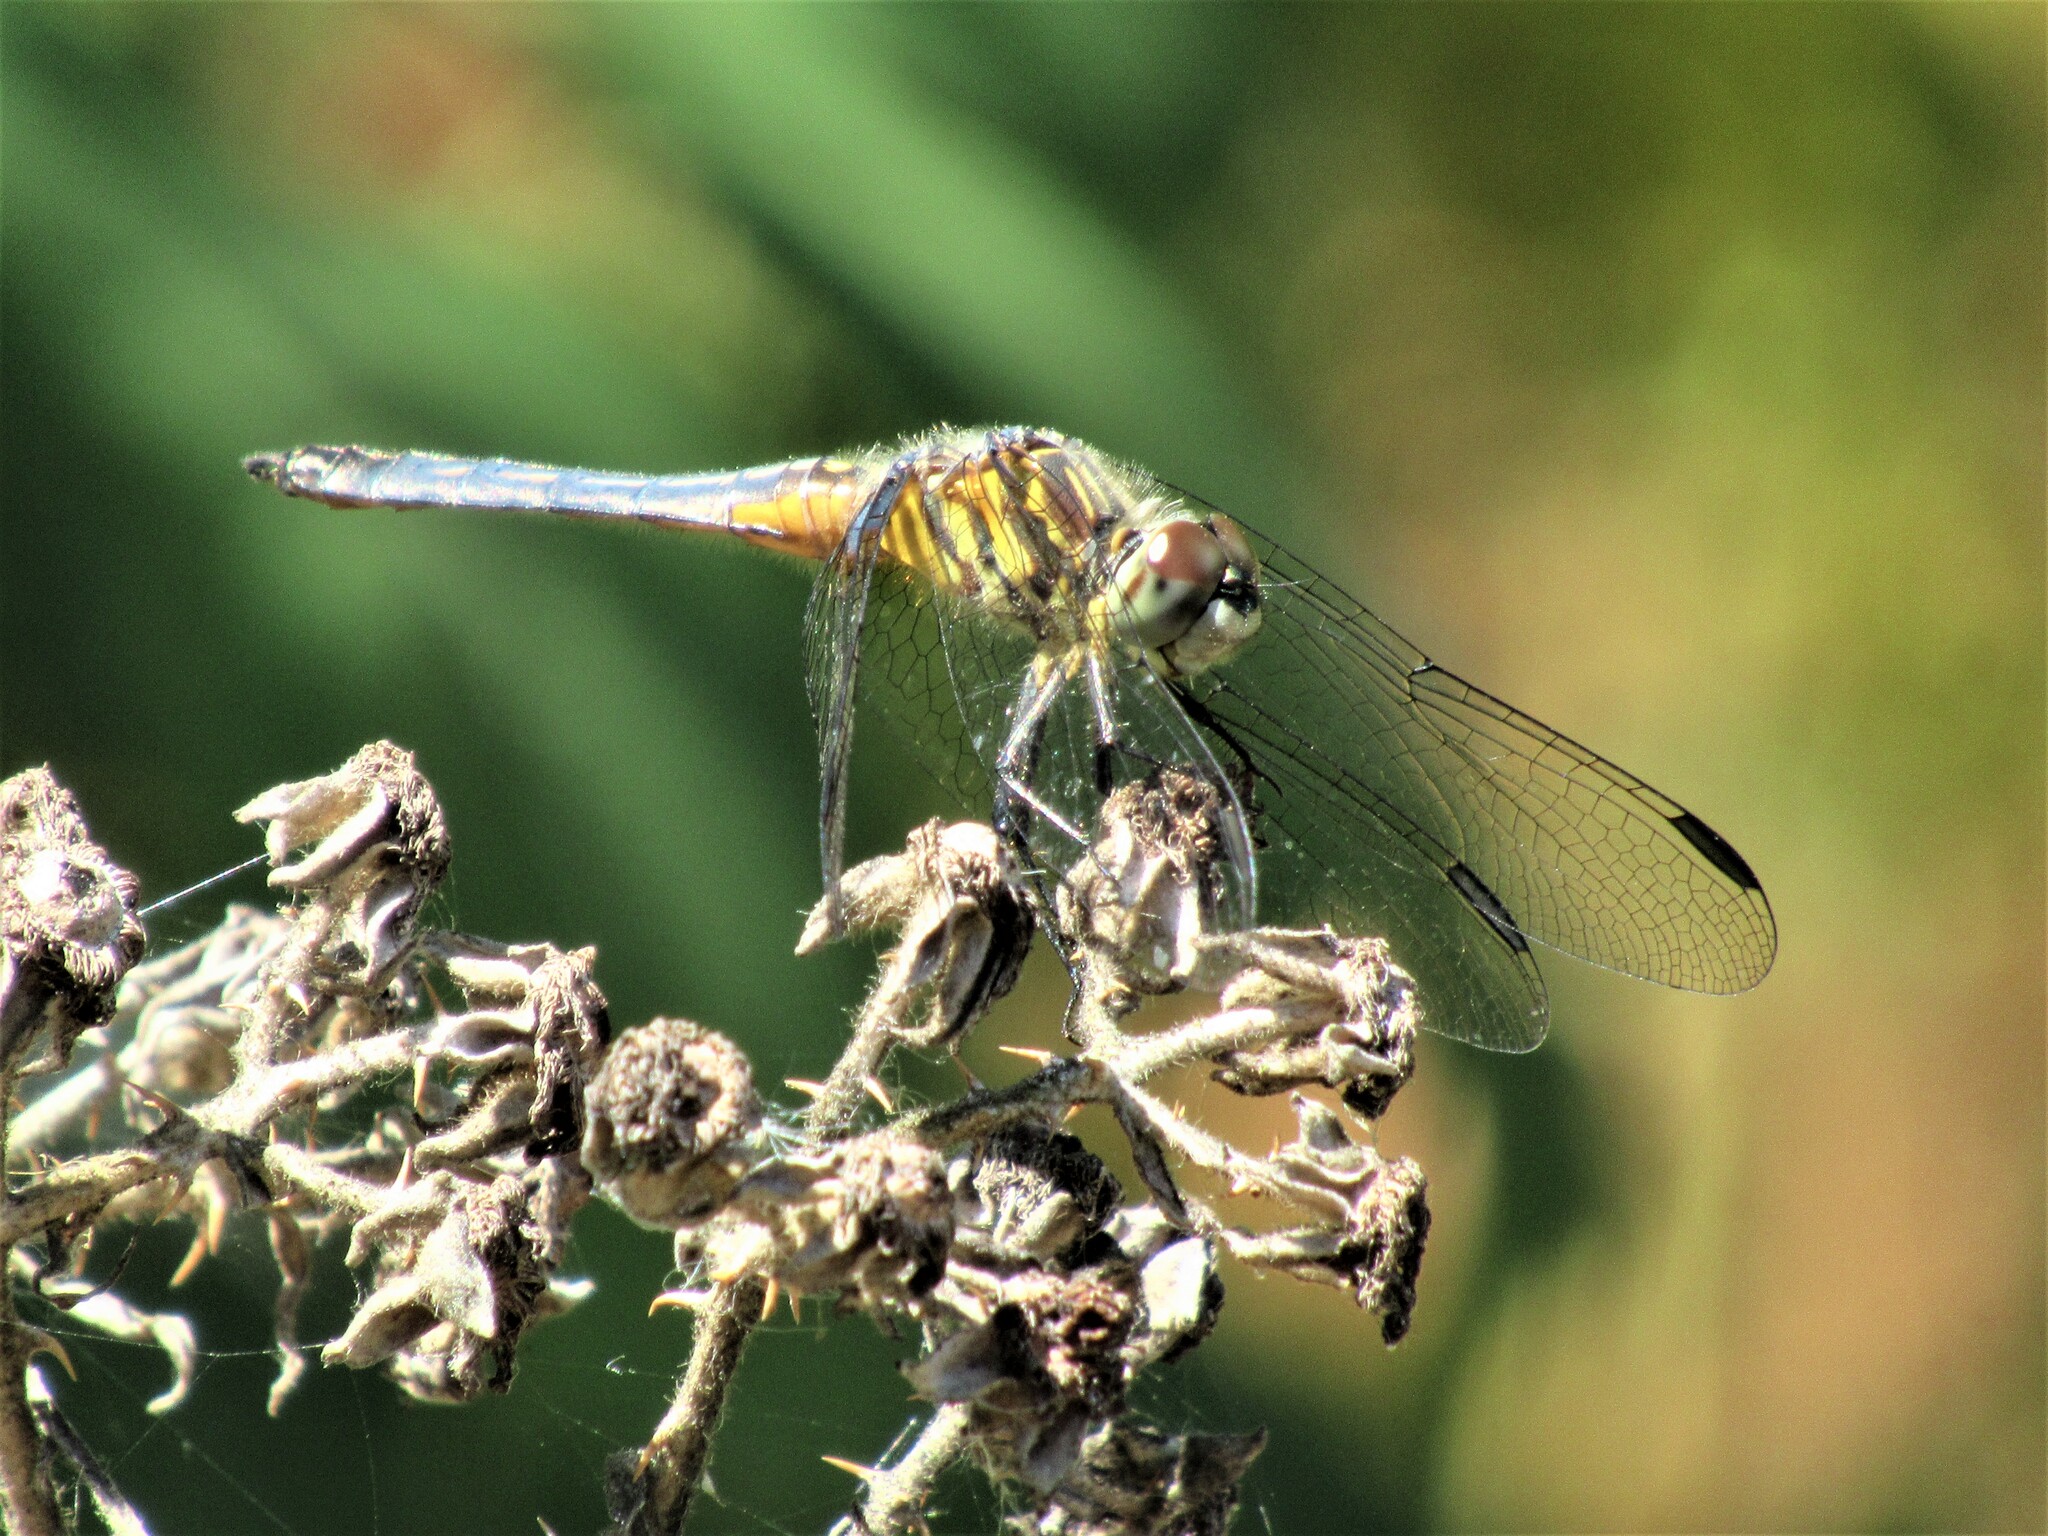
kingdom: Animalia
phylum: Arthropoda
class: Insecta
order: Odonata
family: Libellulidae
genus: Pachydiplax
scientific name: Pachydiplax longipennis
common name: Blue dasher
